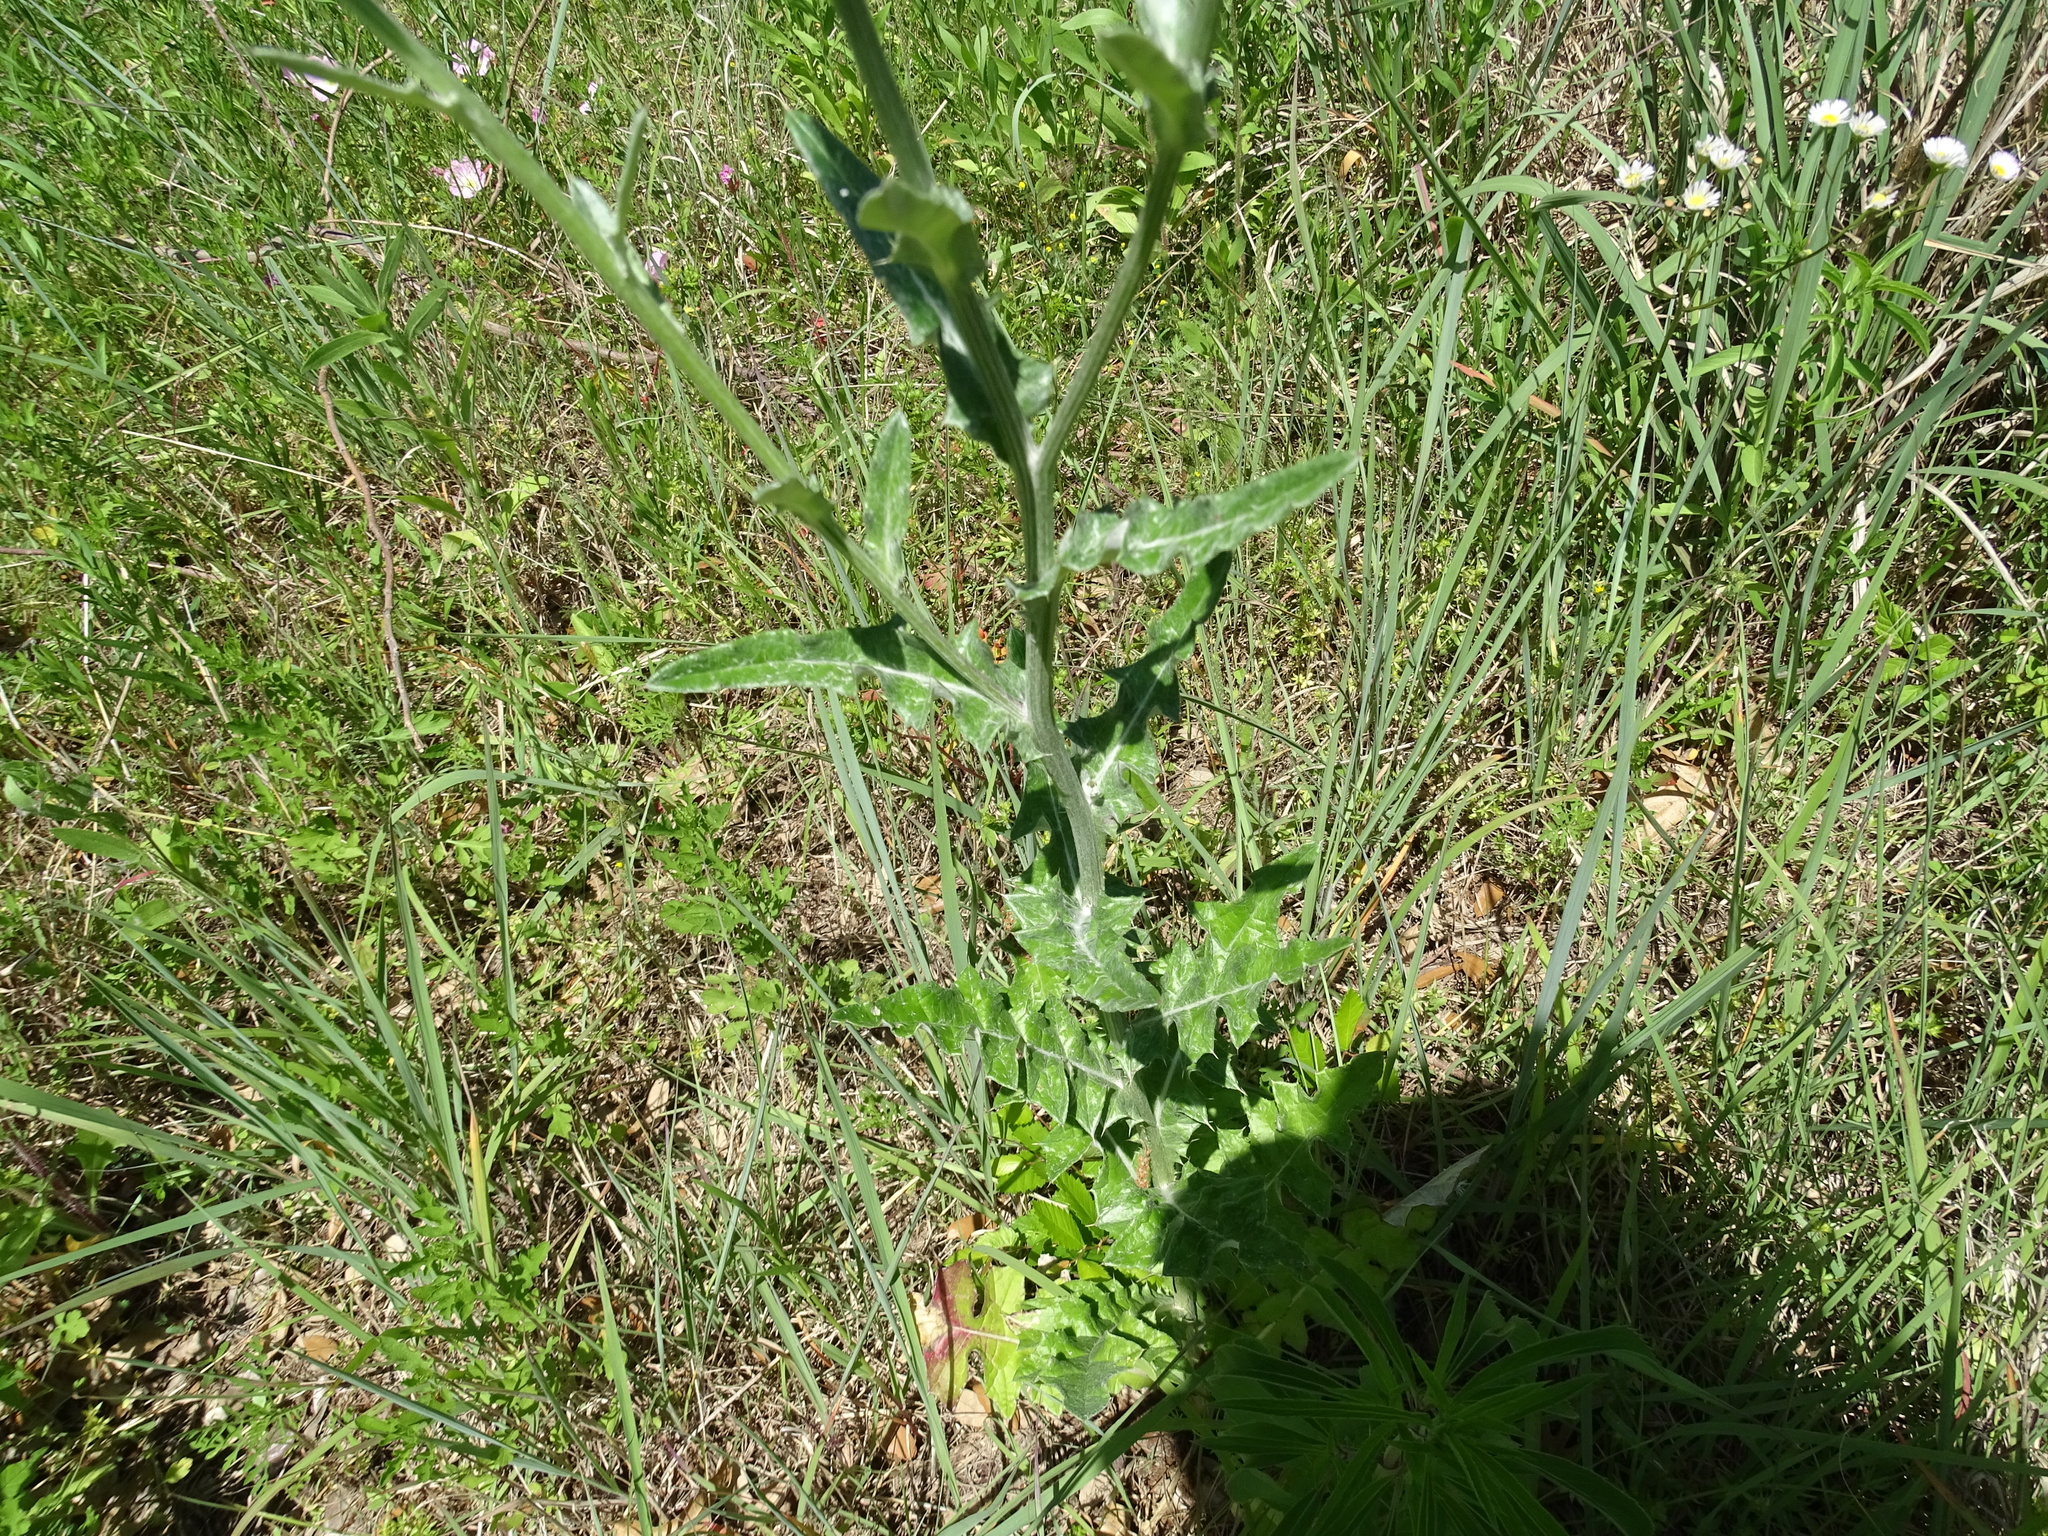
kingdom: Plantae
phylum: Tracheophyta
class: Magnoliopsida
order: Asterales
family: Asteraceae
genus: Cirsium
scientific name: Cirsium texanum
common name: Texas purple thistle
